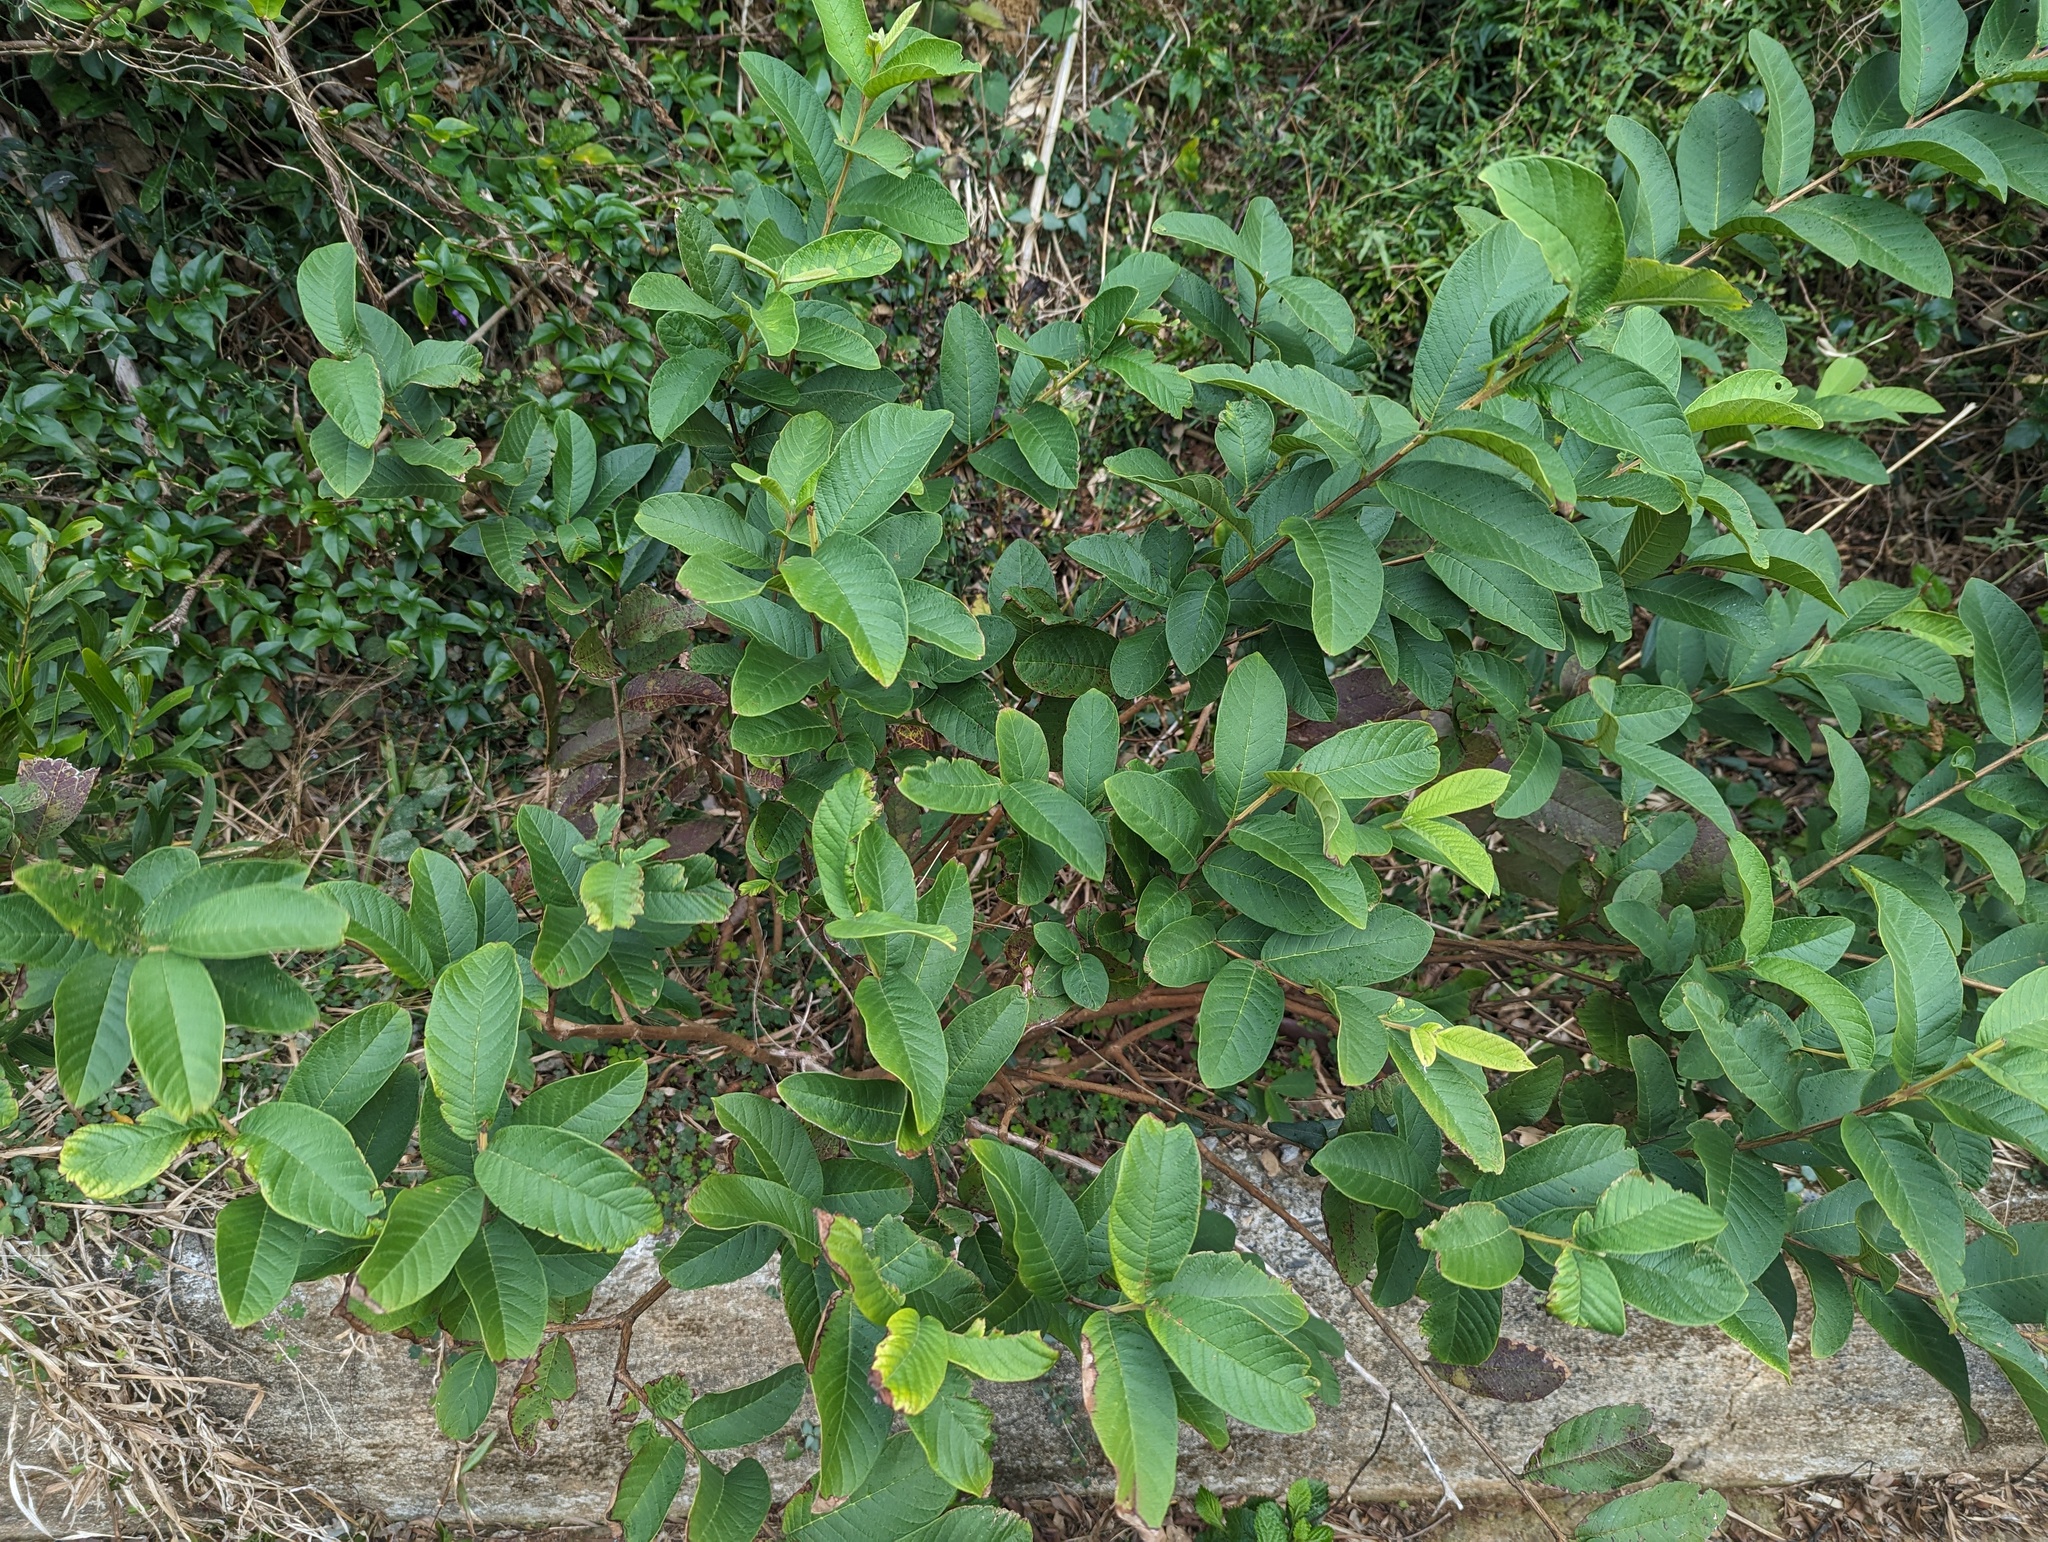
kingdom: Plantae
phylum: Tracheophyta
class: Magnoliopsida
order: Myrtales
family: Myrtaceae
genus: Psidium
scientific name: Psidium guajava
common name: Guava
